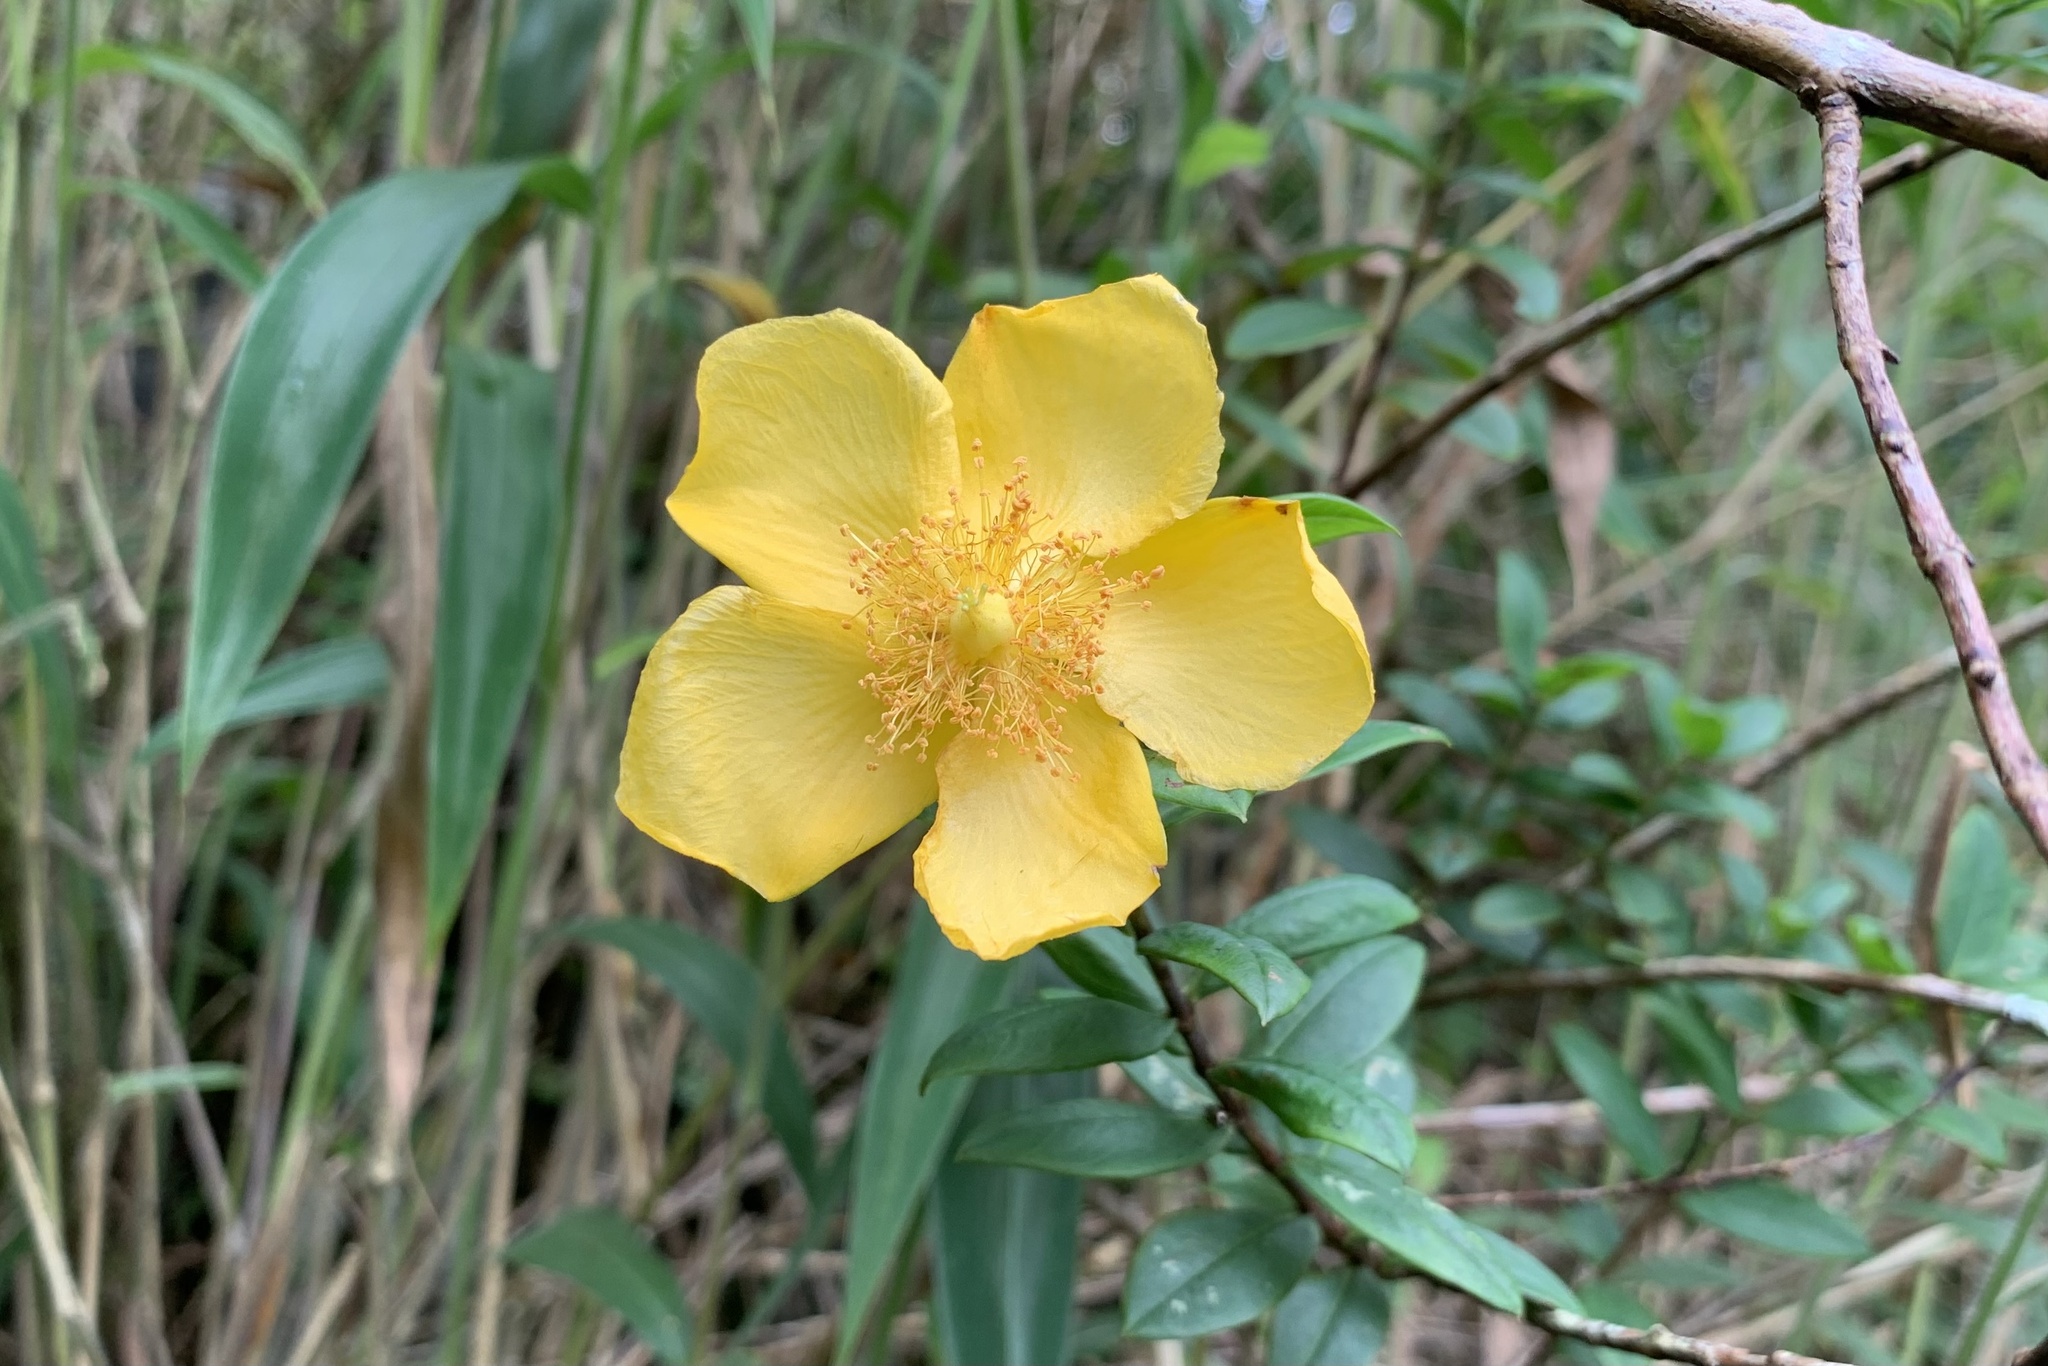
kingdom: Plantae
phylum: Tracheophyta
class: Magnoliopsida
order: Malpighiales
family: Hypericaceae
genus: Hypericum
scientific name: Hypericum hookerianum
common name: Hooker's st. johnswort
